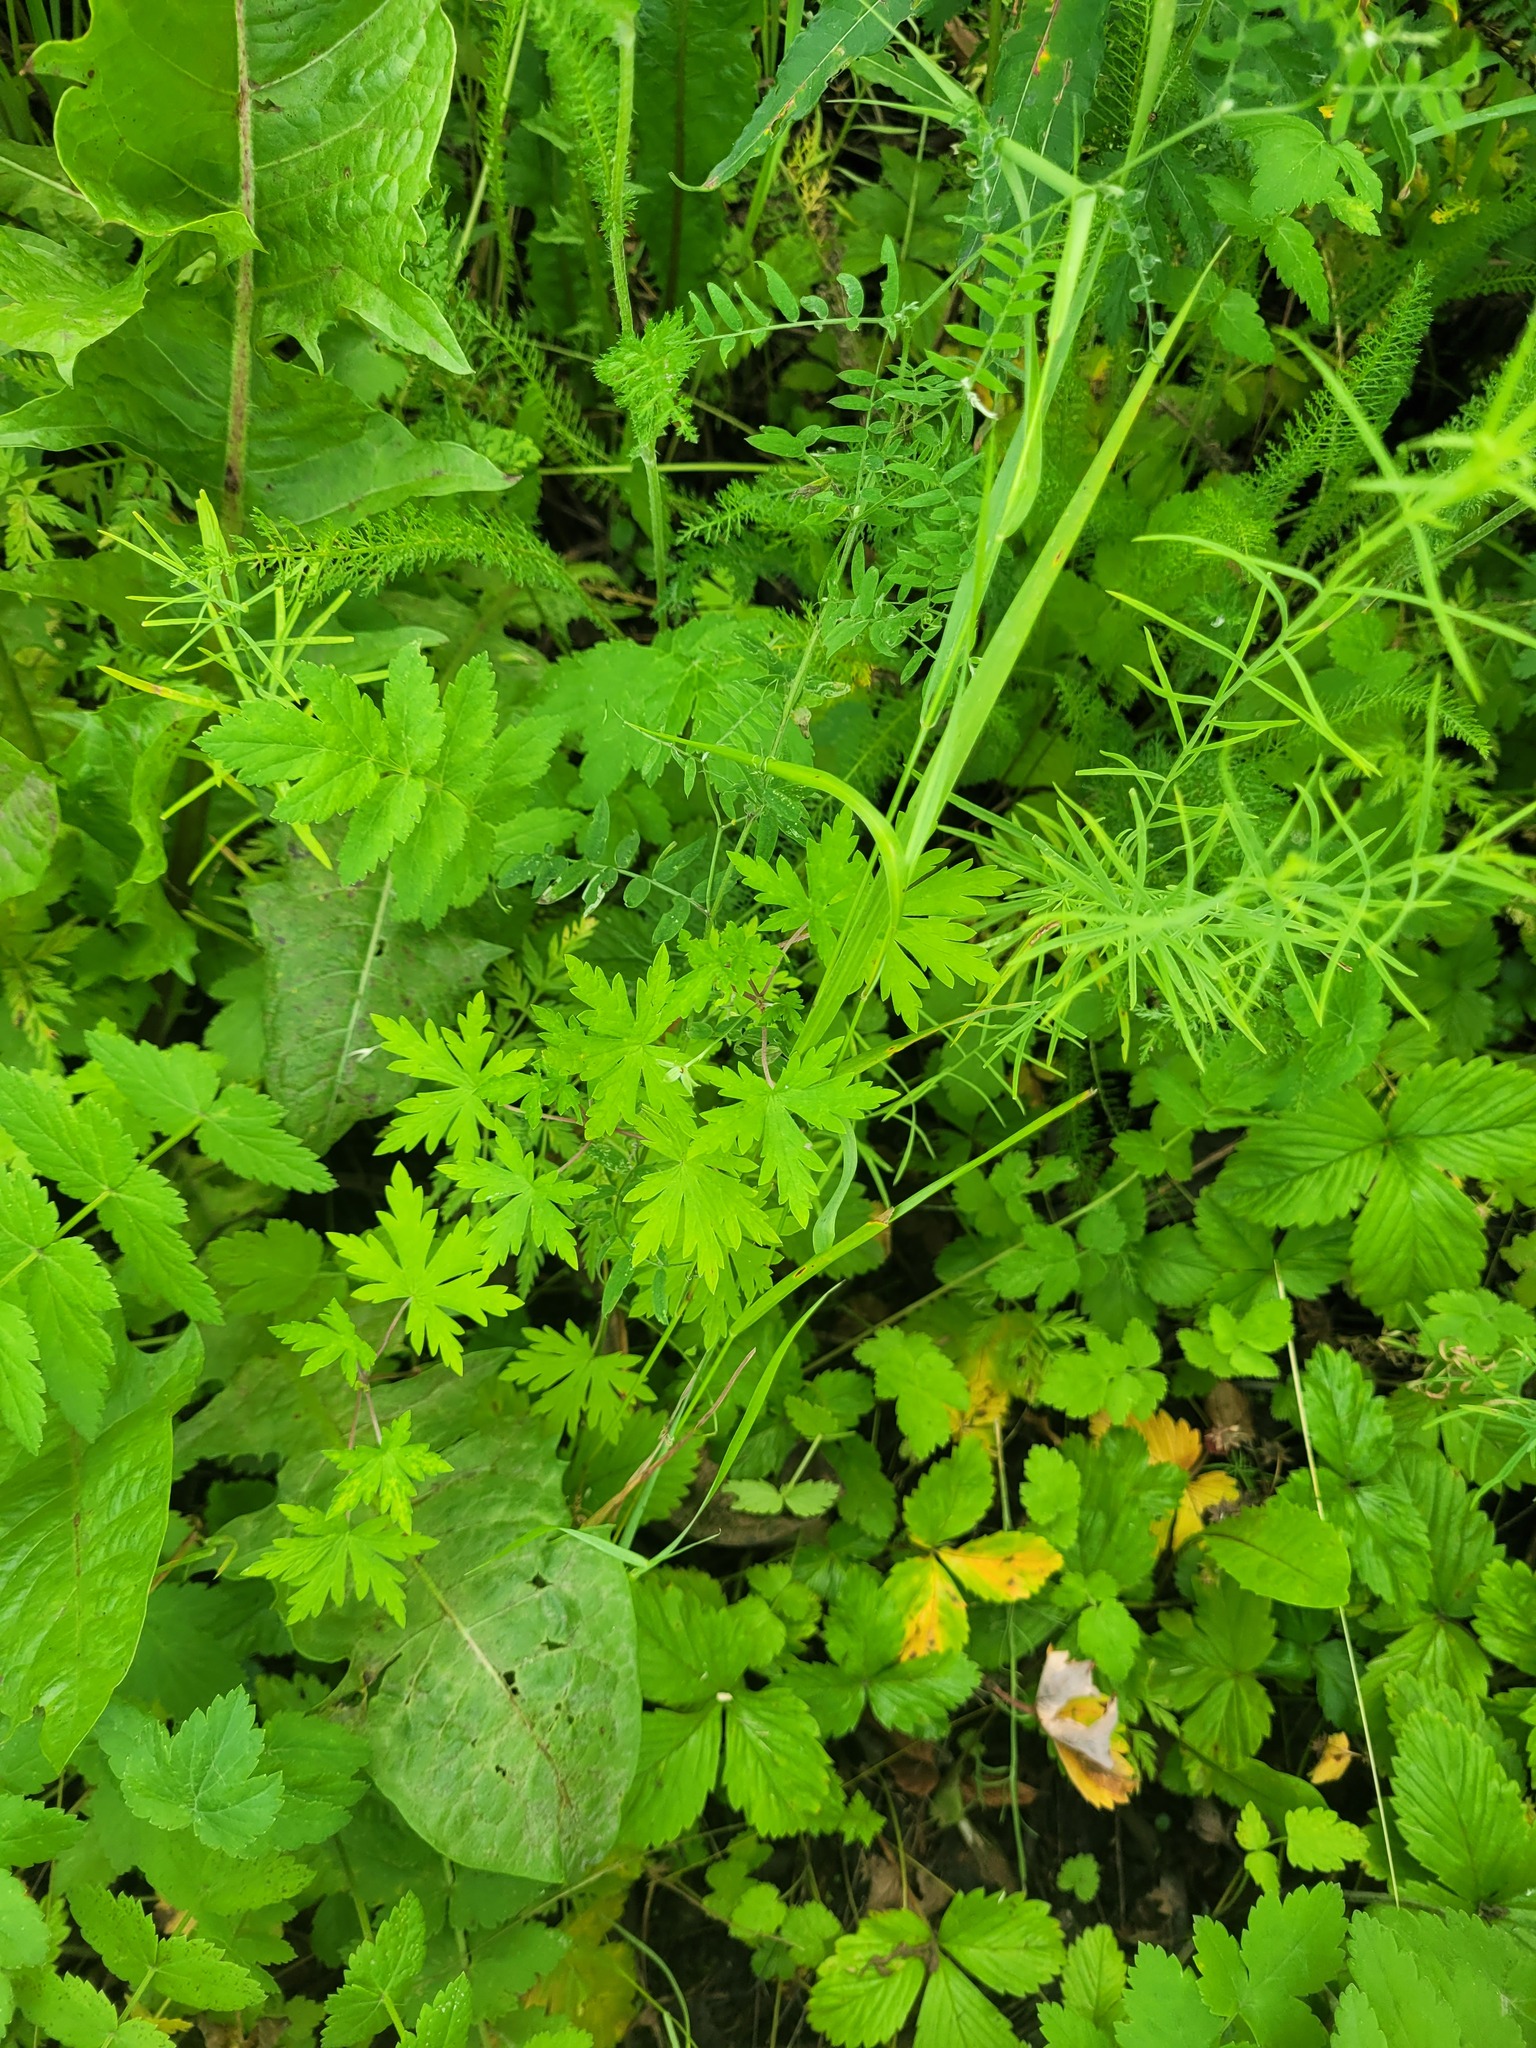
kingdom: Plantae
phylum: Tracheophyta
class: Magnoliopsida
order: Geraniales
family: Geraniaceae
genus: Geranium
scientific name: Geranium sibiricum
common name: Siberian crane's-bill
